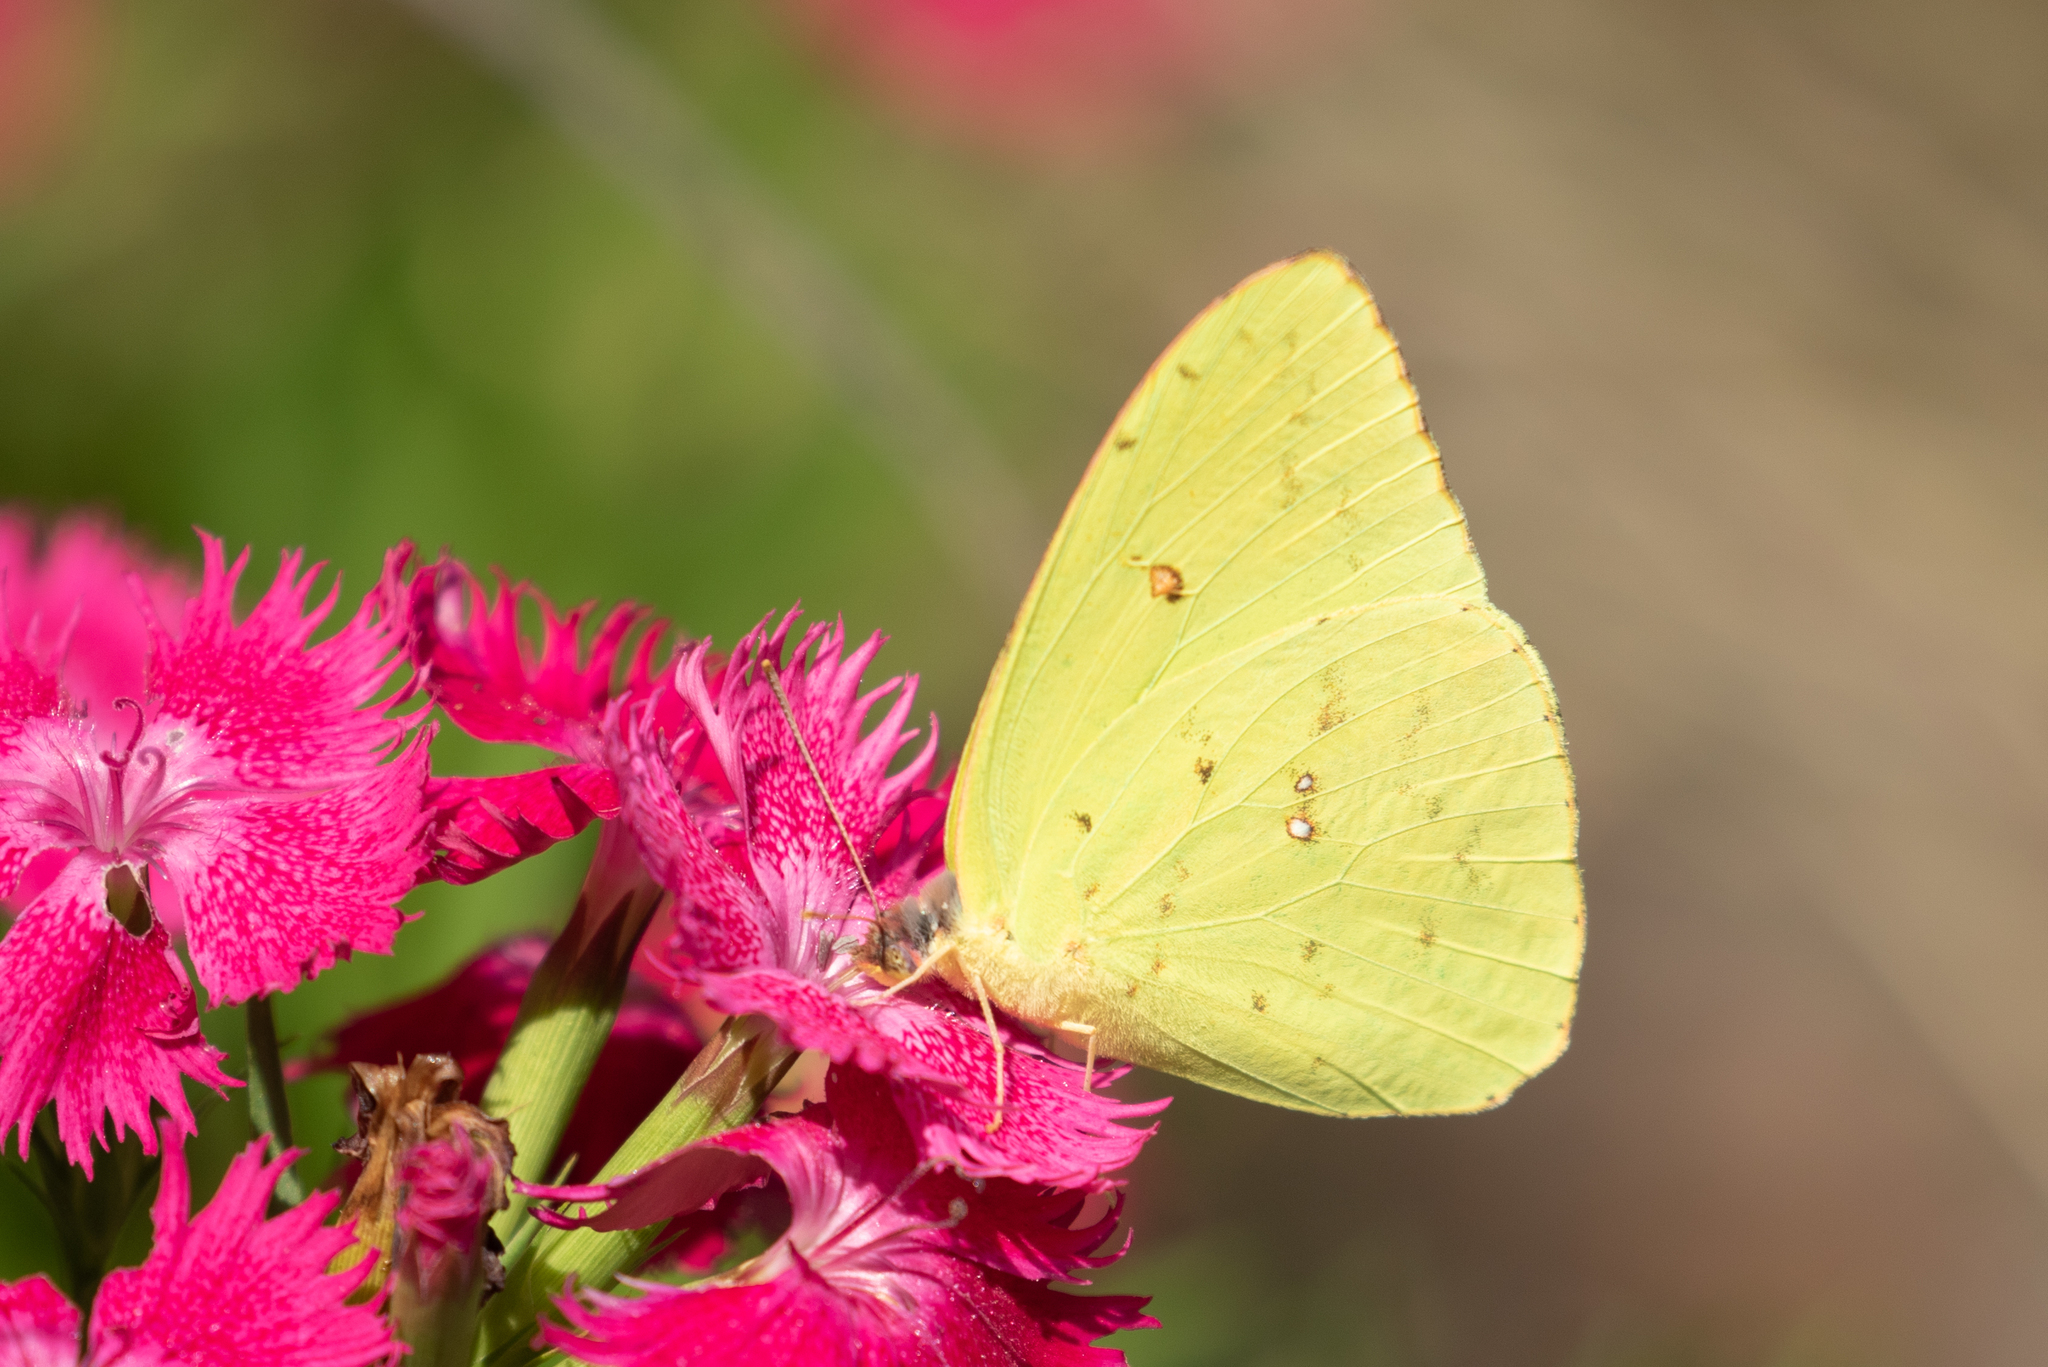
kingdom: Animalia
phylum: Arthropoda
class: Insecta
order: Lepidoptera
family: Pieridae
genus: Phoebis
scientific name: Phoebis sennae
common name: Cloudless sulphur
